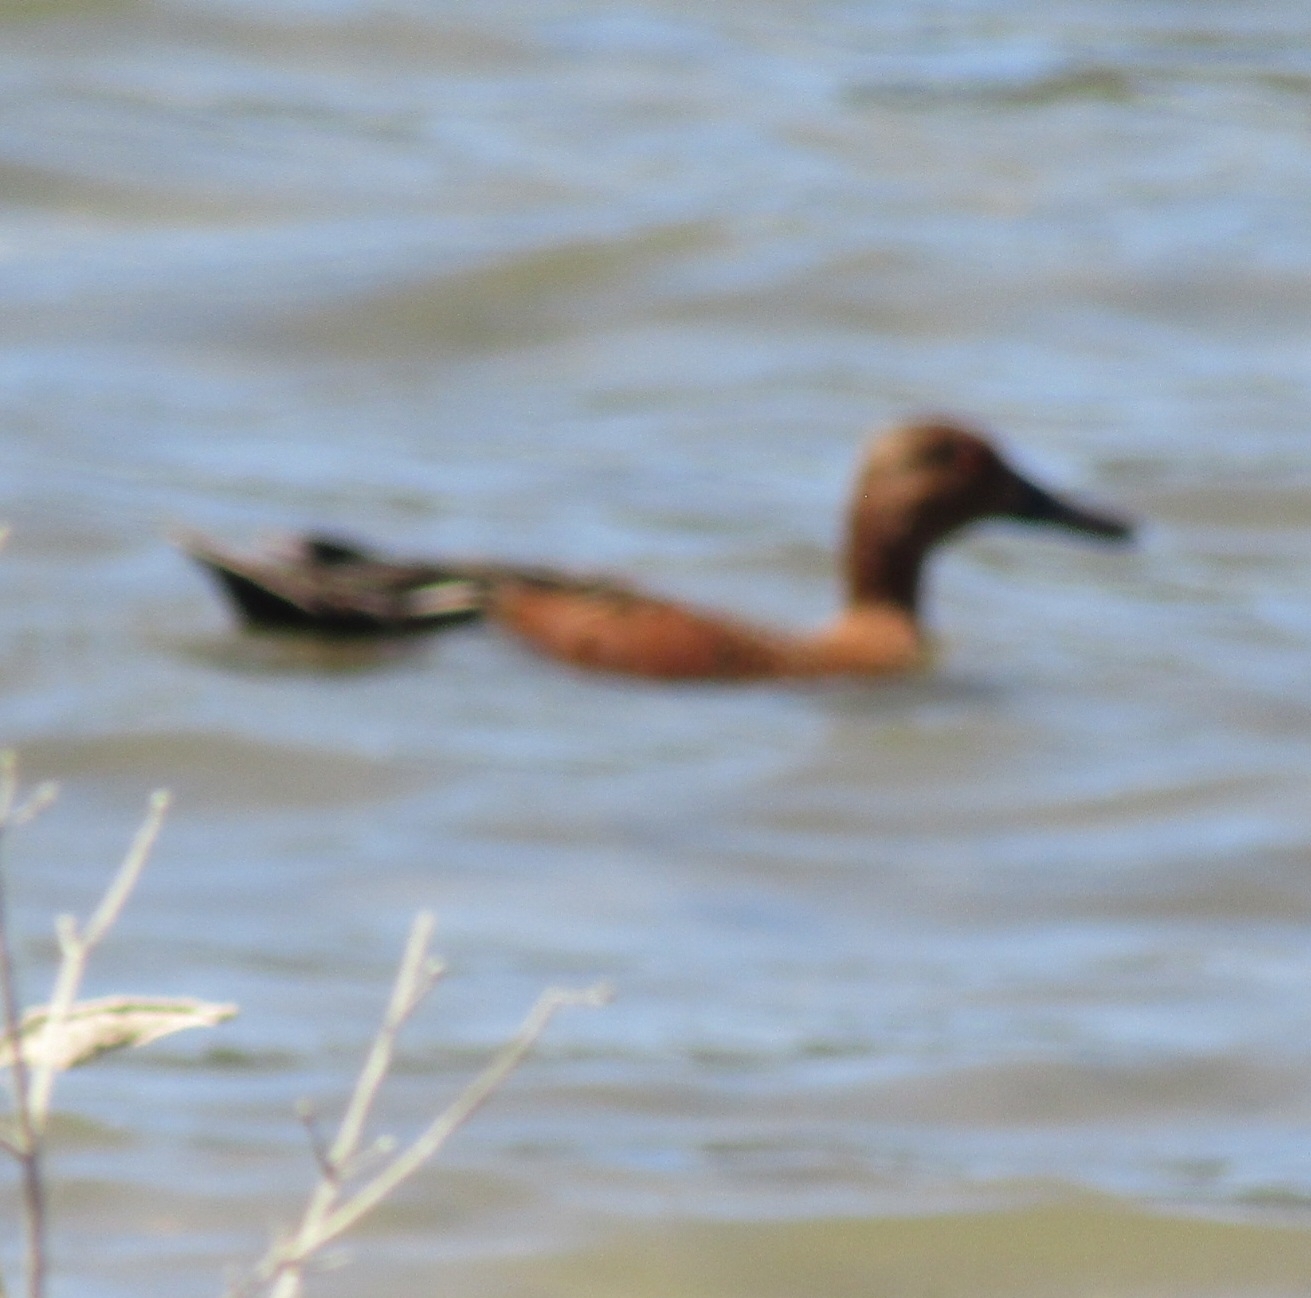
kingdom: Animalia
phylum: Chordata
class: Aves
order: Anseriformes
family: Anatidae
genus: Spatula
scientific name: Spatula cyanoptera
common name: Cinnamon teal
